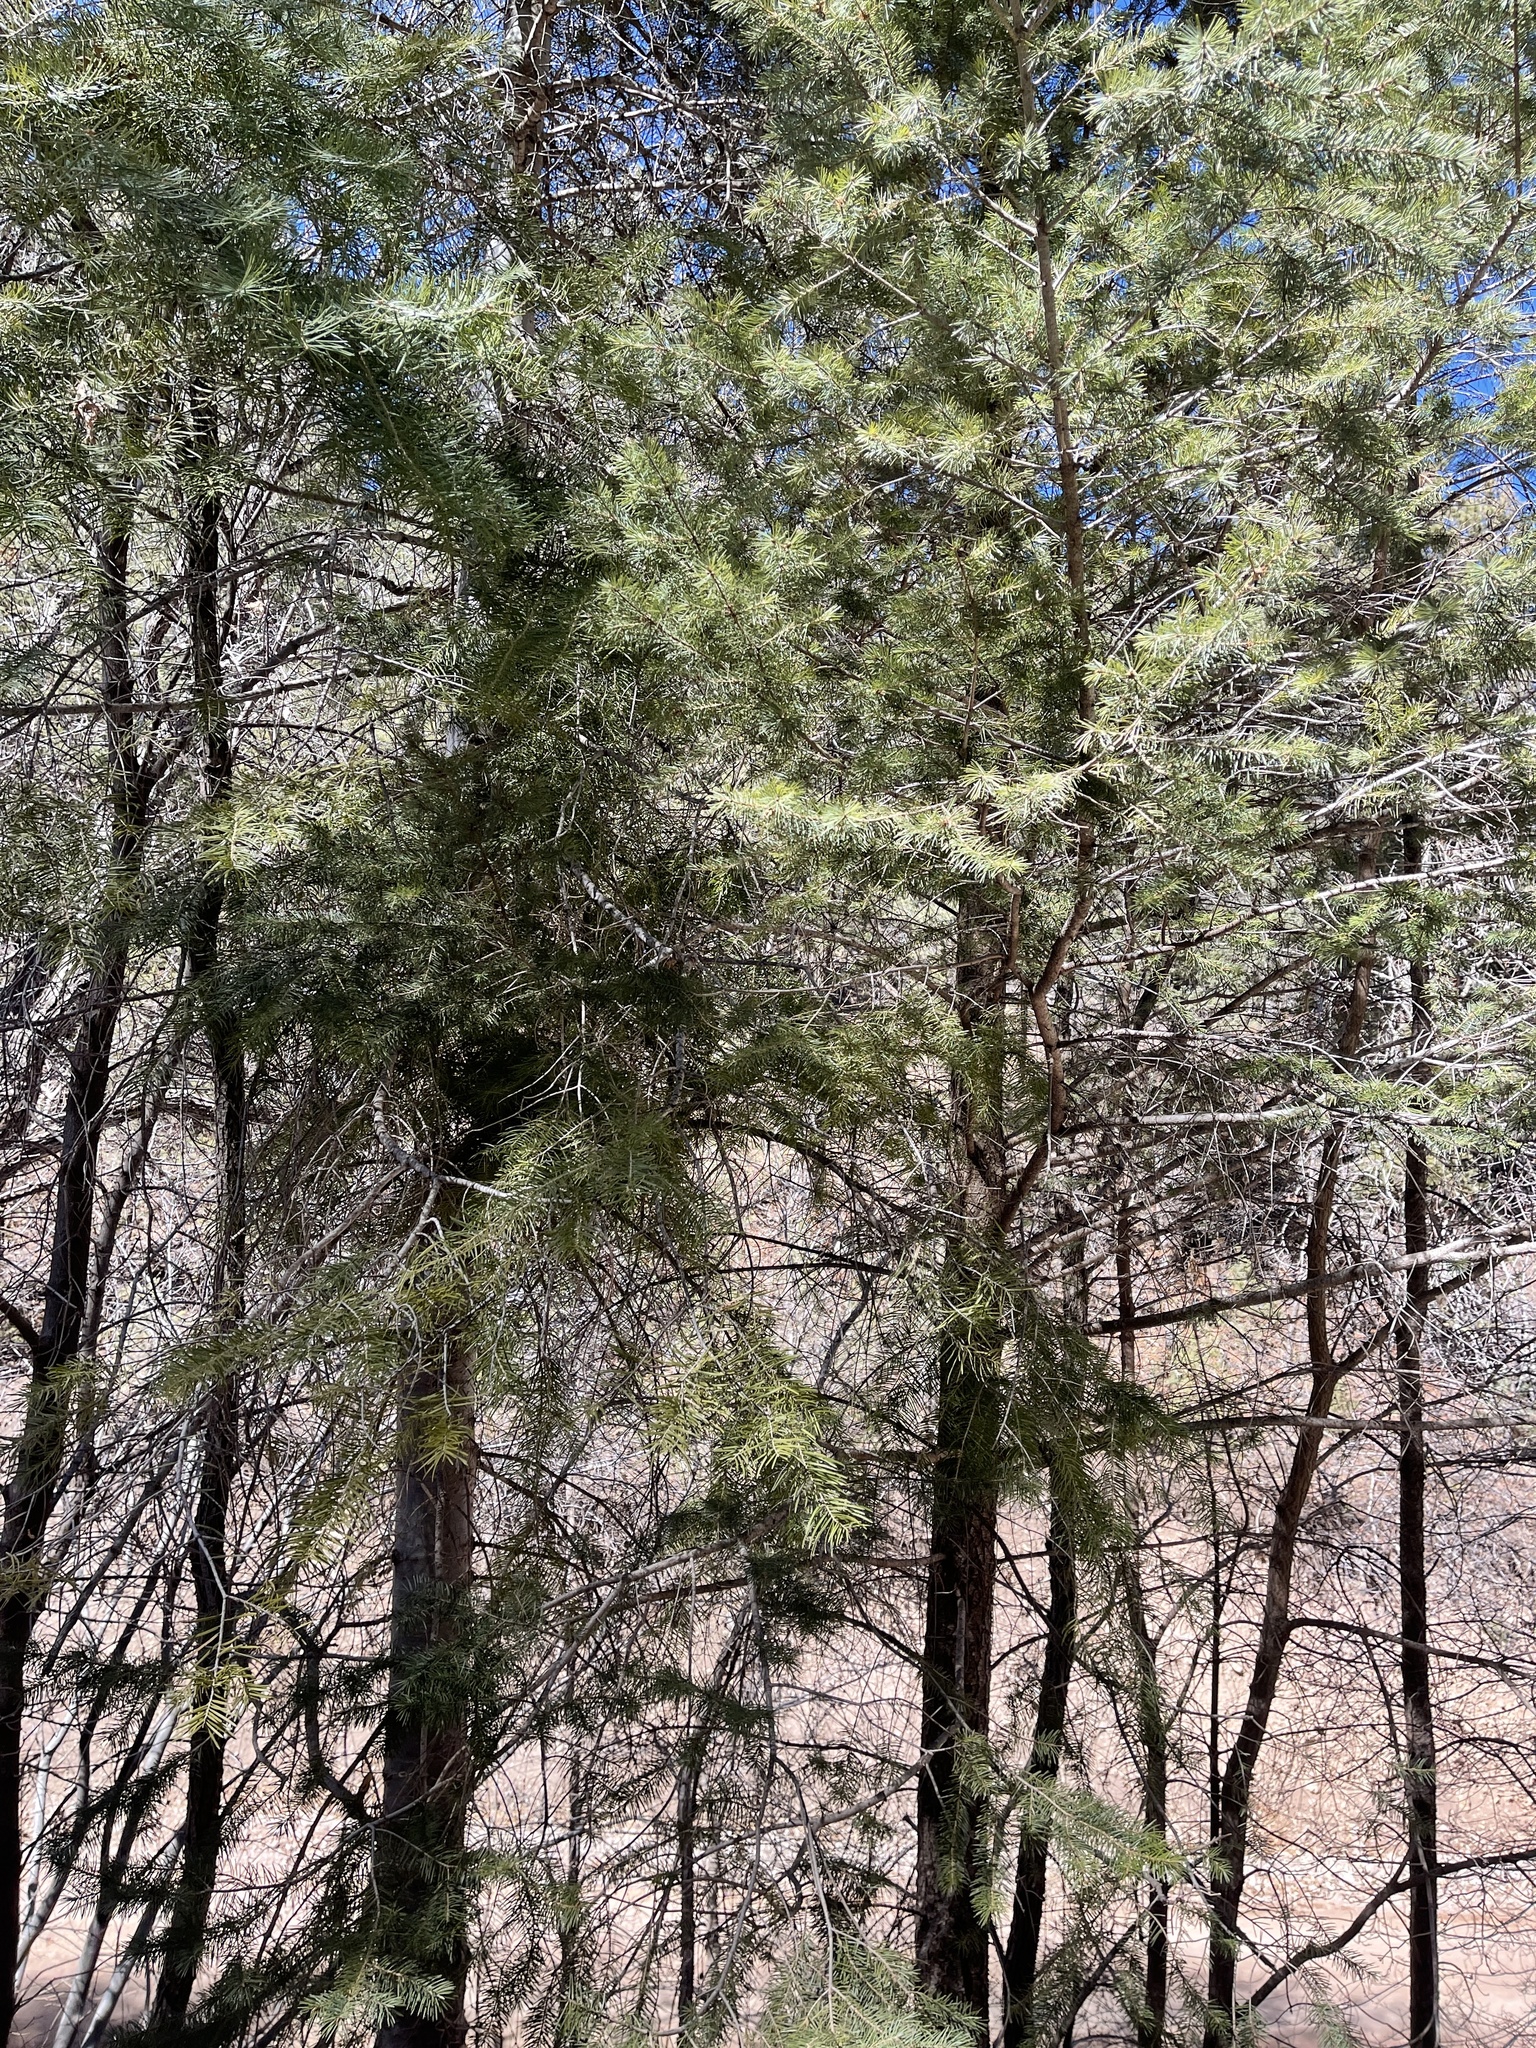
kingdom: Plantae
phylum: Tracheophyta
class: Pinopsida
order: Pinales
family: Pinaceae
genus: Abies
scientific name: Abies concolor
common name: Colorado fir
